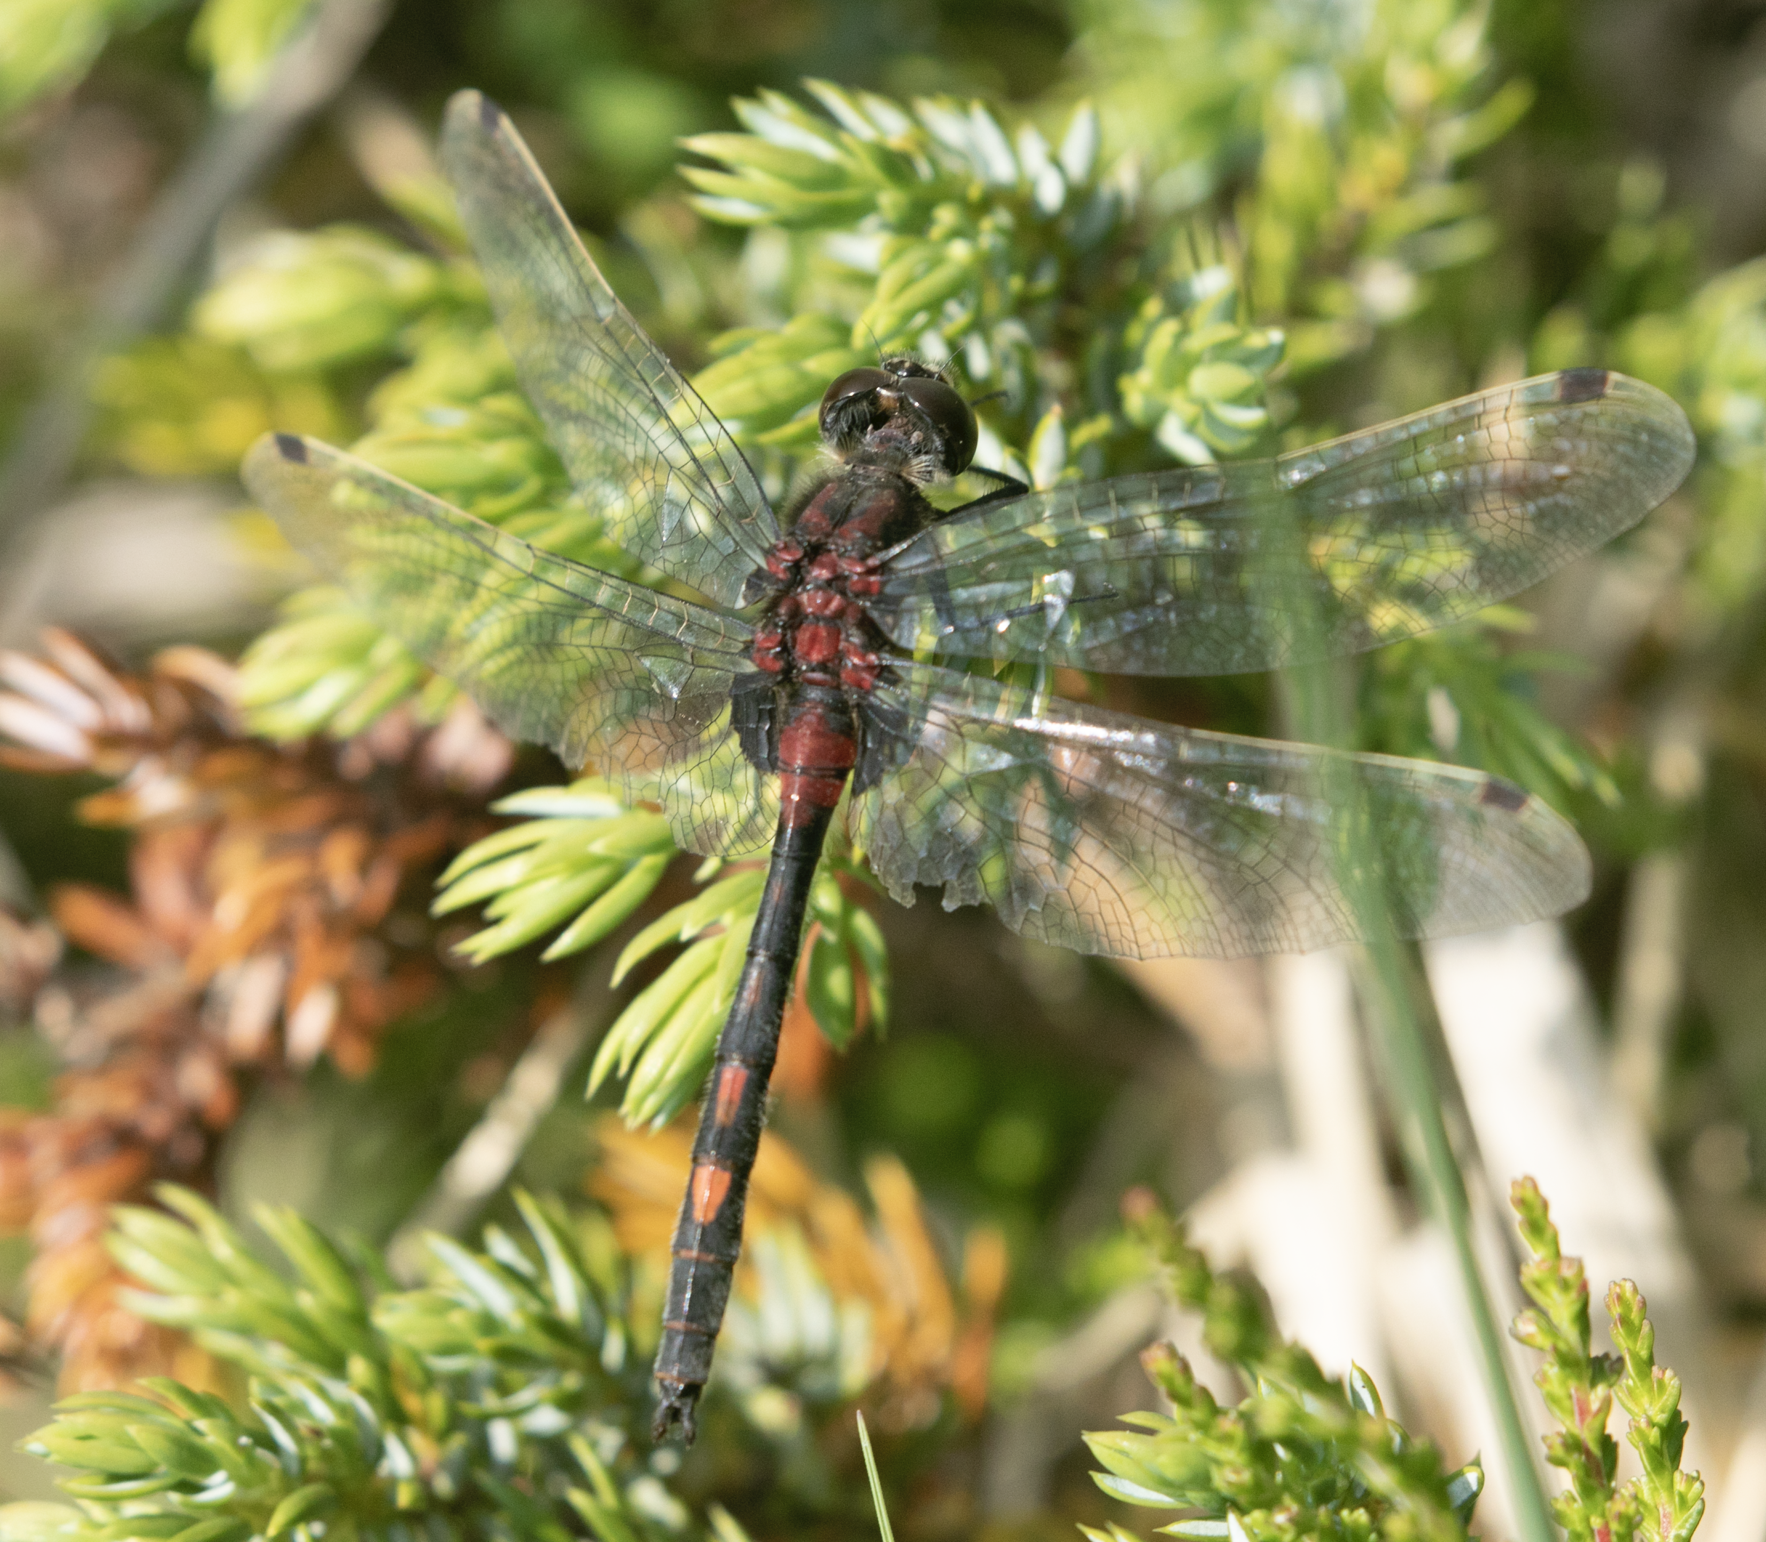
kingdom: Animalia
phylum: Arthropoda
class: Insecta
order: Odonata
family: Libellulidae
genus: Leucorrhinia
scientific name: Leucorrhinia dubia
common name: White-faced darter
